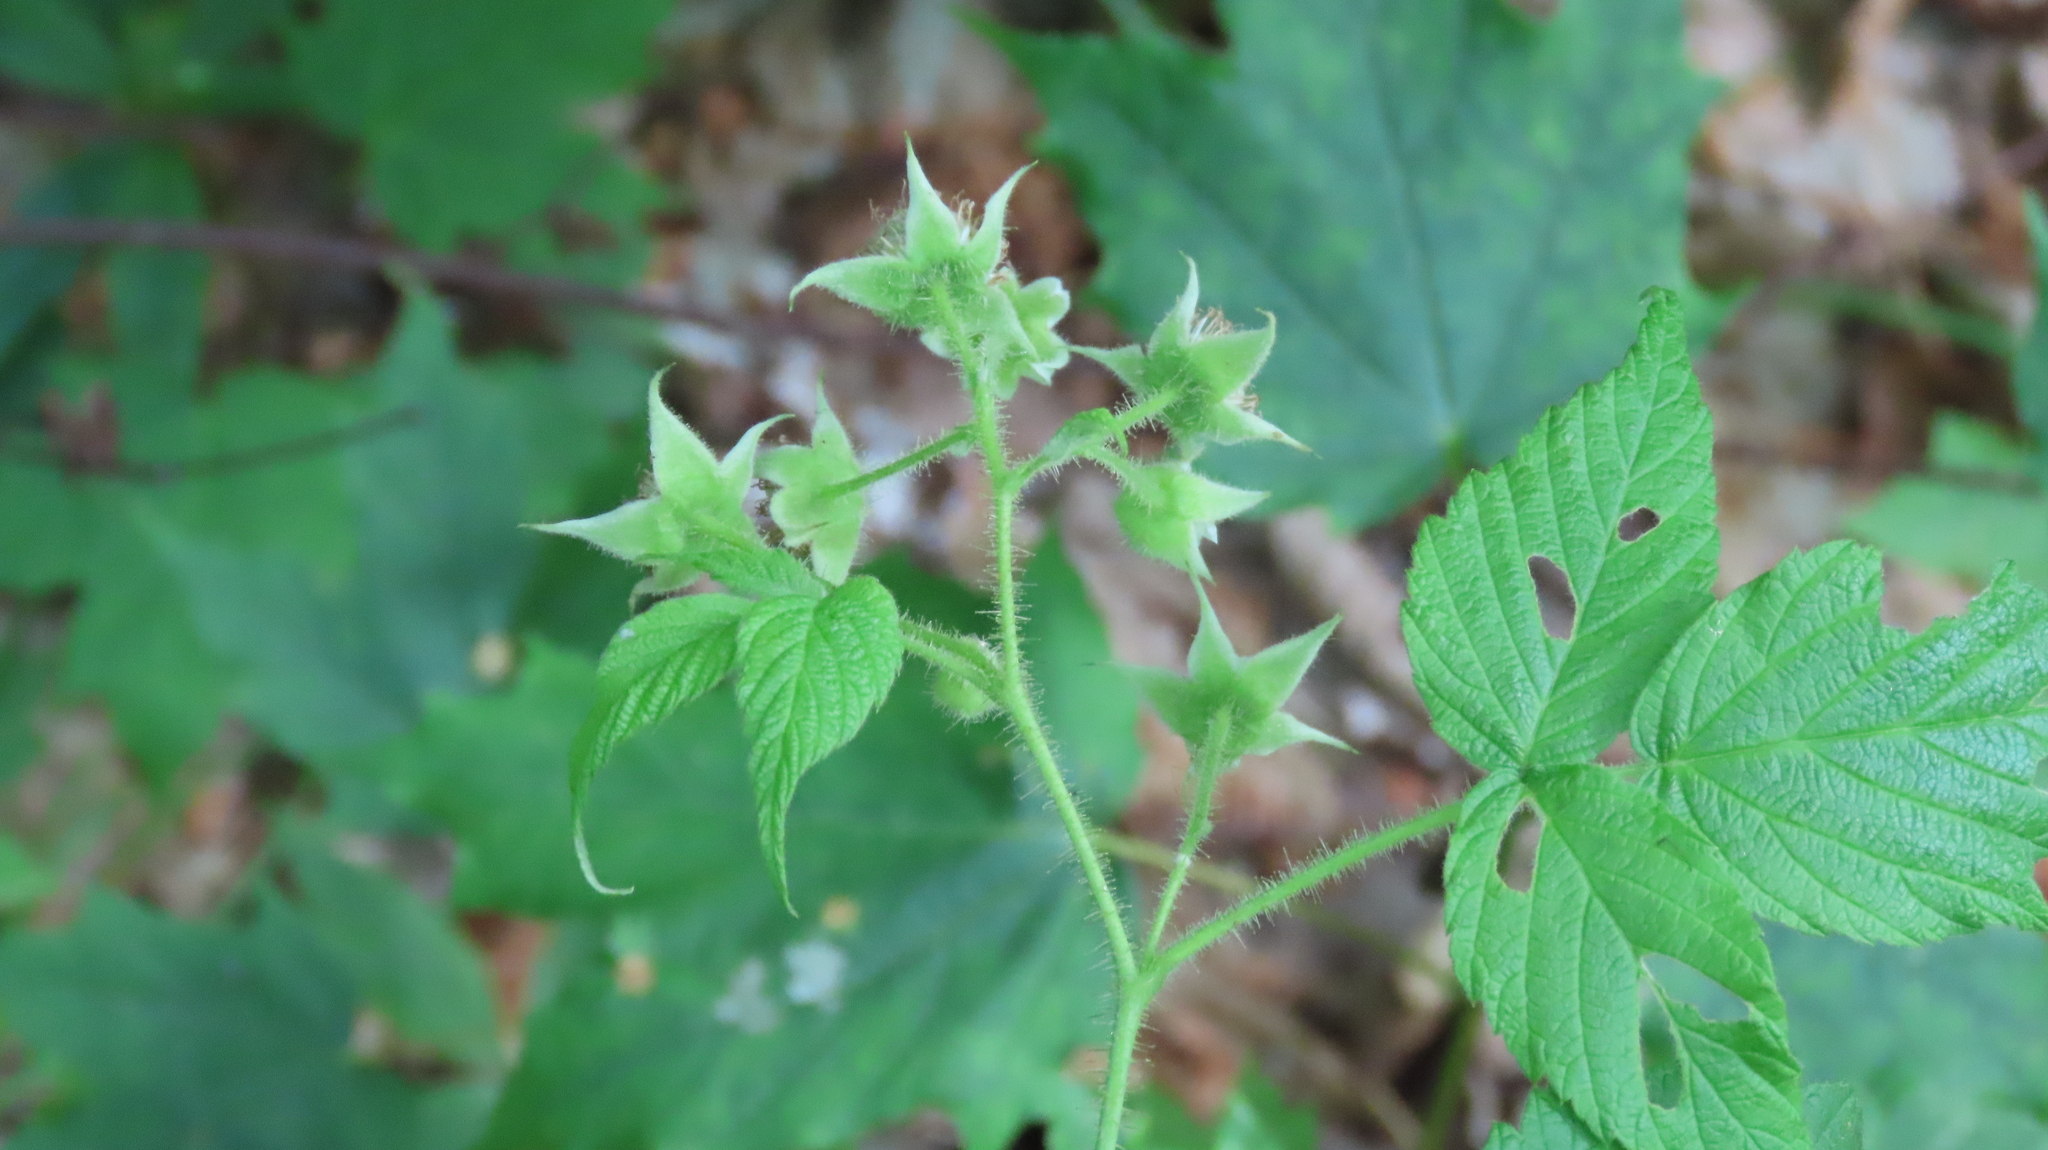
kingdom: Plantae
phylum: Tracheophyta
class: Magnoliopsida
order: Rosales
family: Rosaceae
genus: Rubus
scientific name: Rubus idaeus
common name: Raspberry
